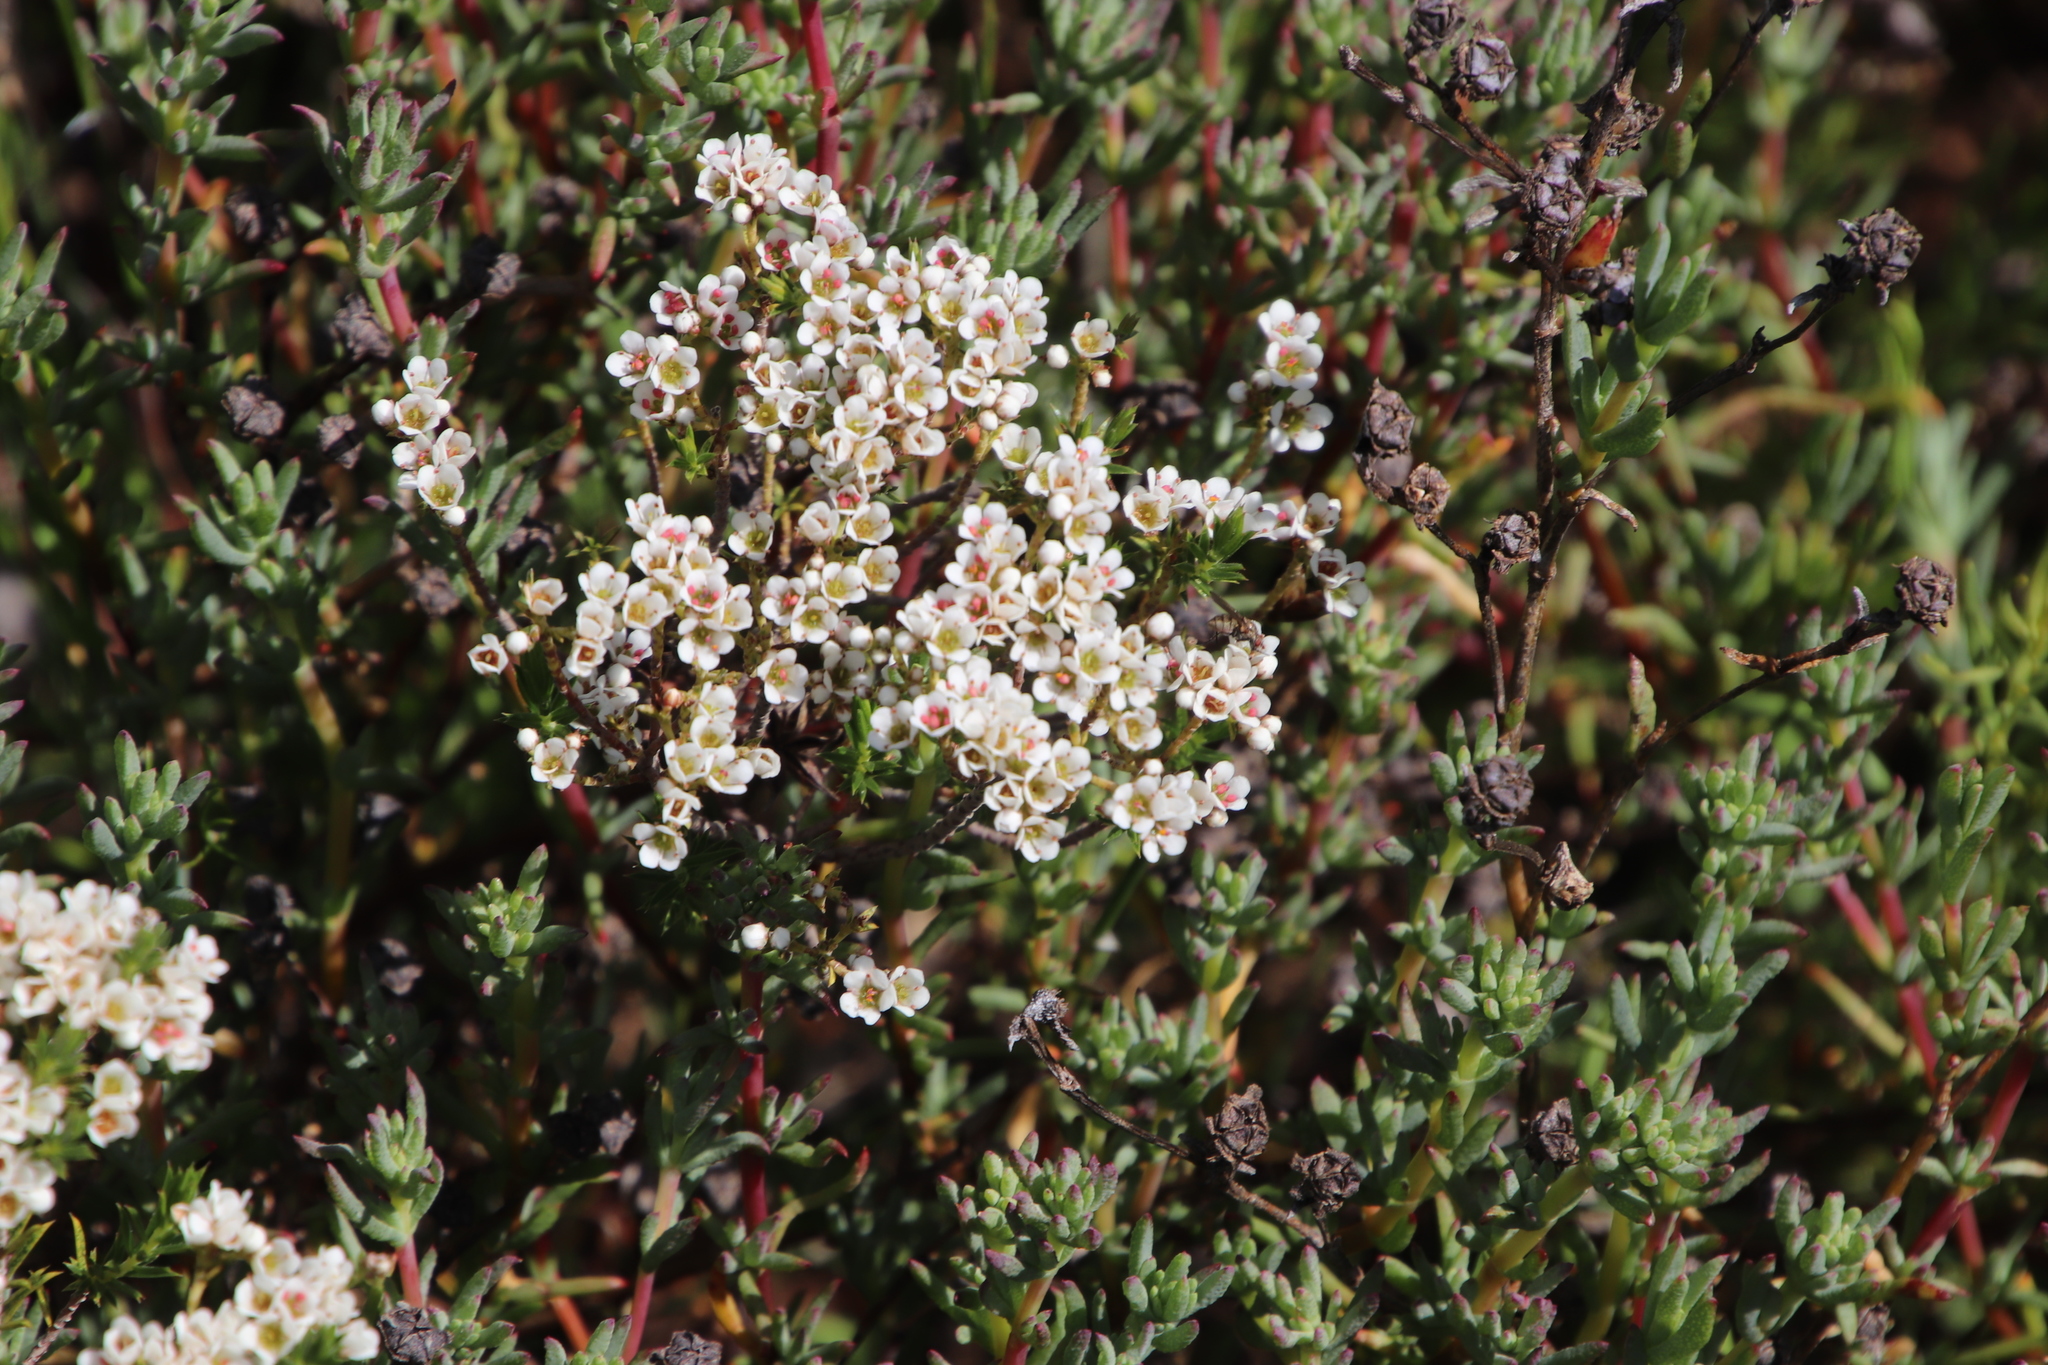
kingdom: Plantae
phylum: Tracheophyta
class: Magnoliopsida
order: Sapindales
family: Rutaceae
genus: Diosma
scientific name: Diosma hirsuta
